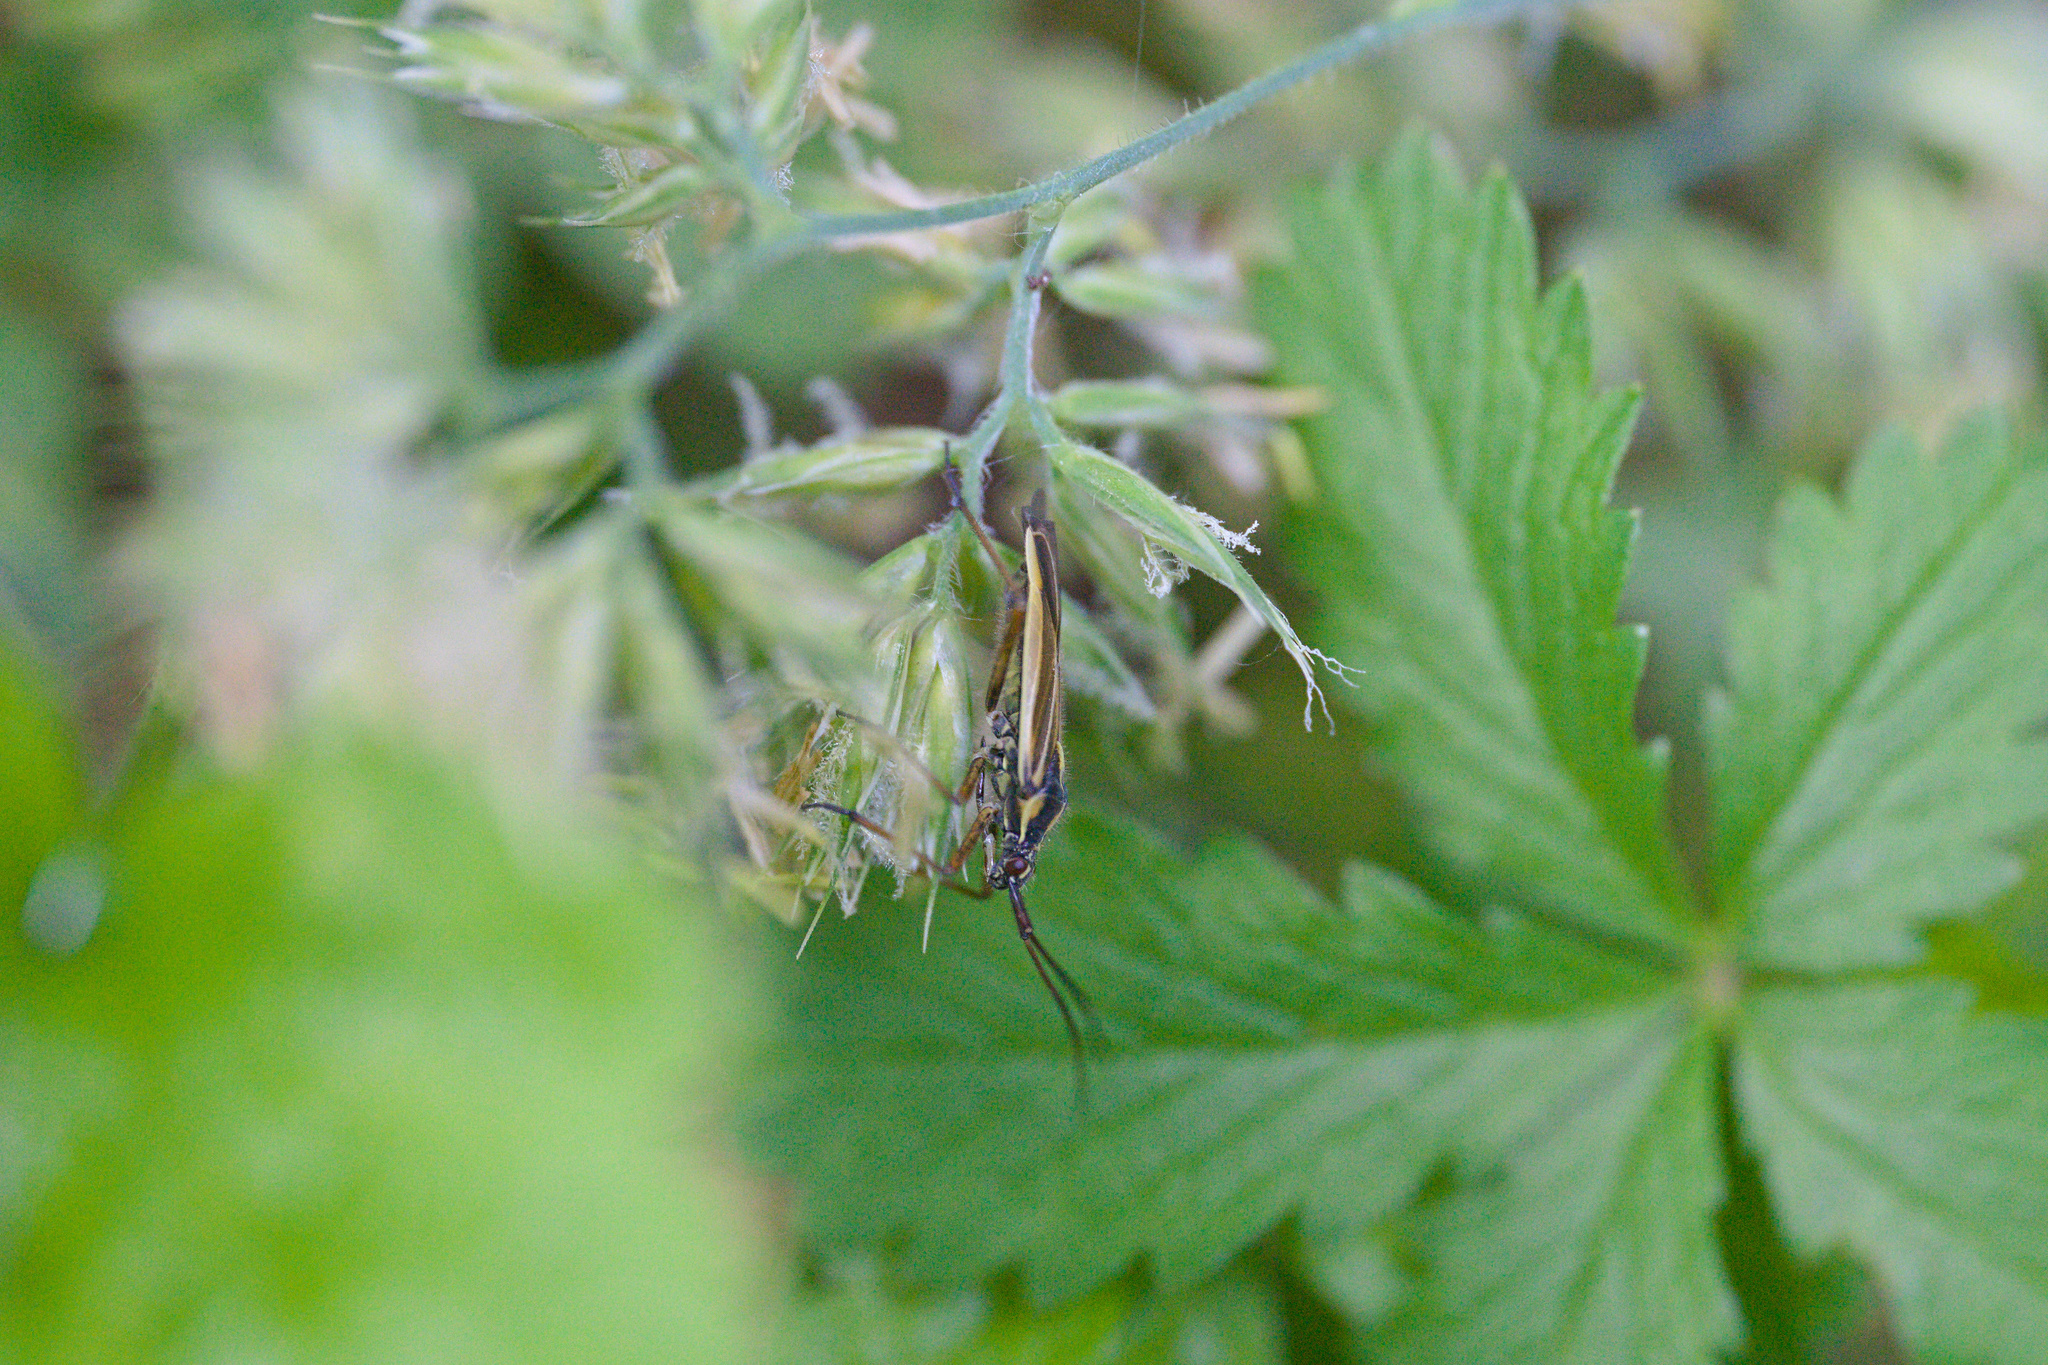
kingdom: Animalia
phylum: Arthropoda
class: Insecta
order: Hemiptera
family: Miridae
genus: Leptopterna
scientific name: Leptopterna dolabrata
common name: Meadow plant bug
